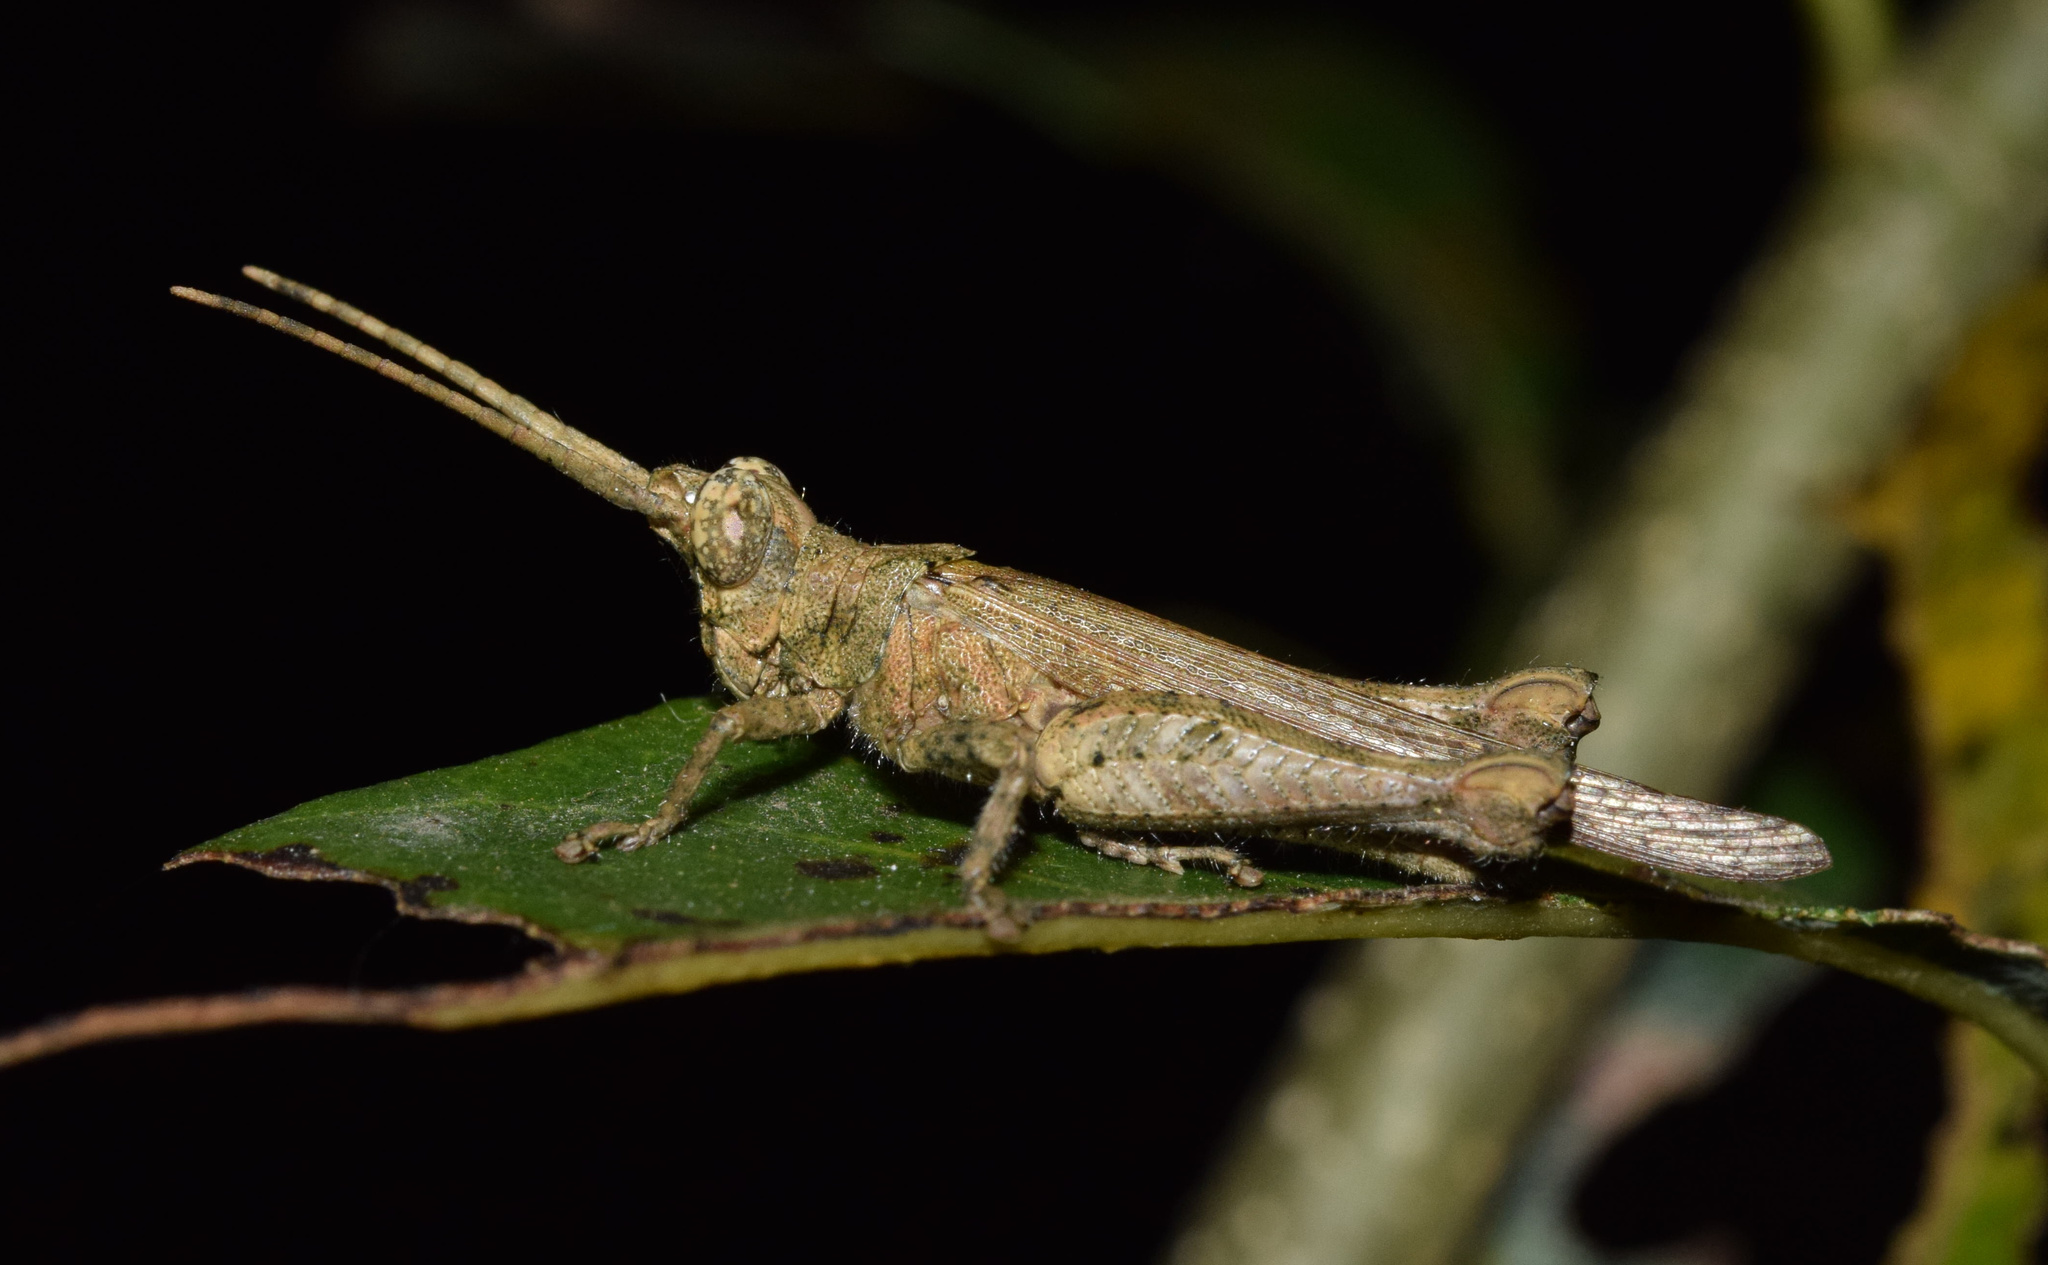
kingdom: Animalia
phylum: Arthropoda
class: Insecta
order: Orthoptera
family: Acrididae
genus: Allotriusia
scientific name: Allotriusia luteipennis
